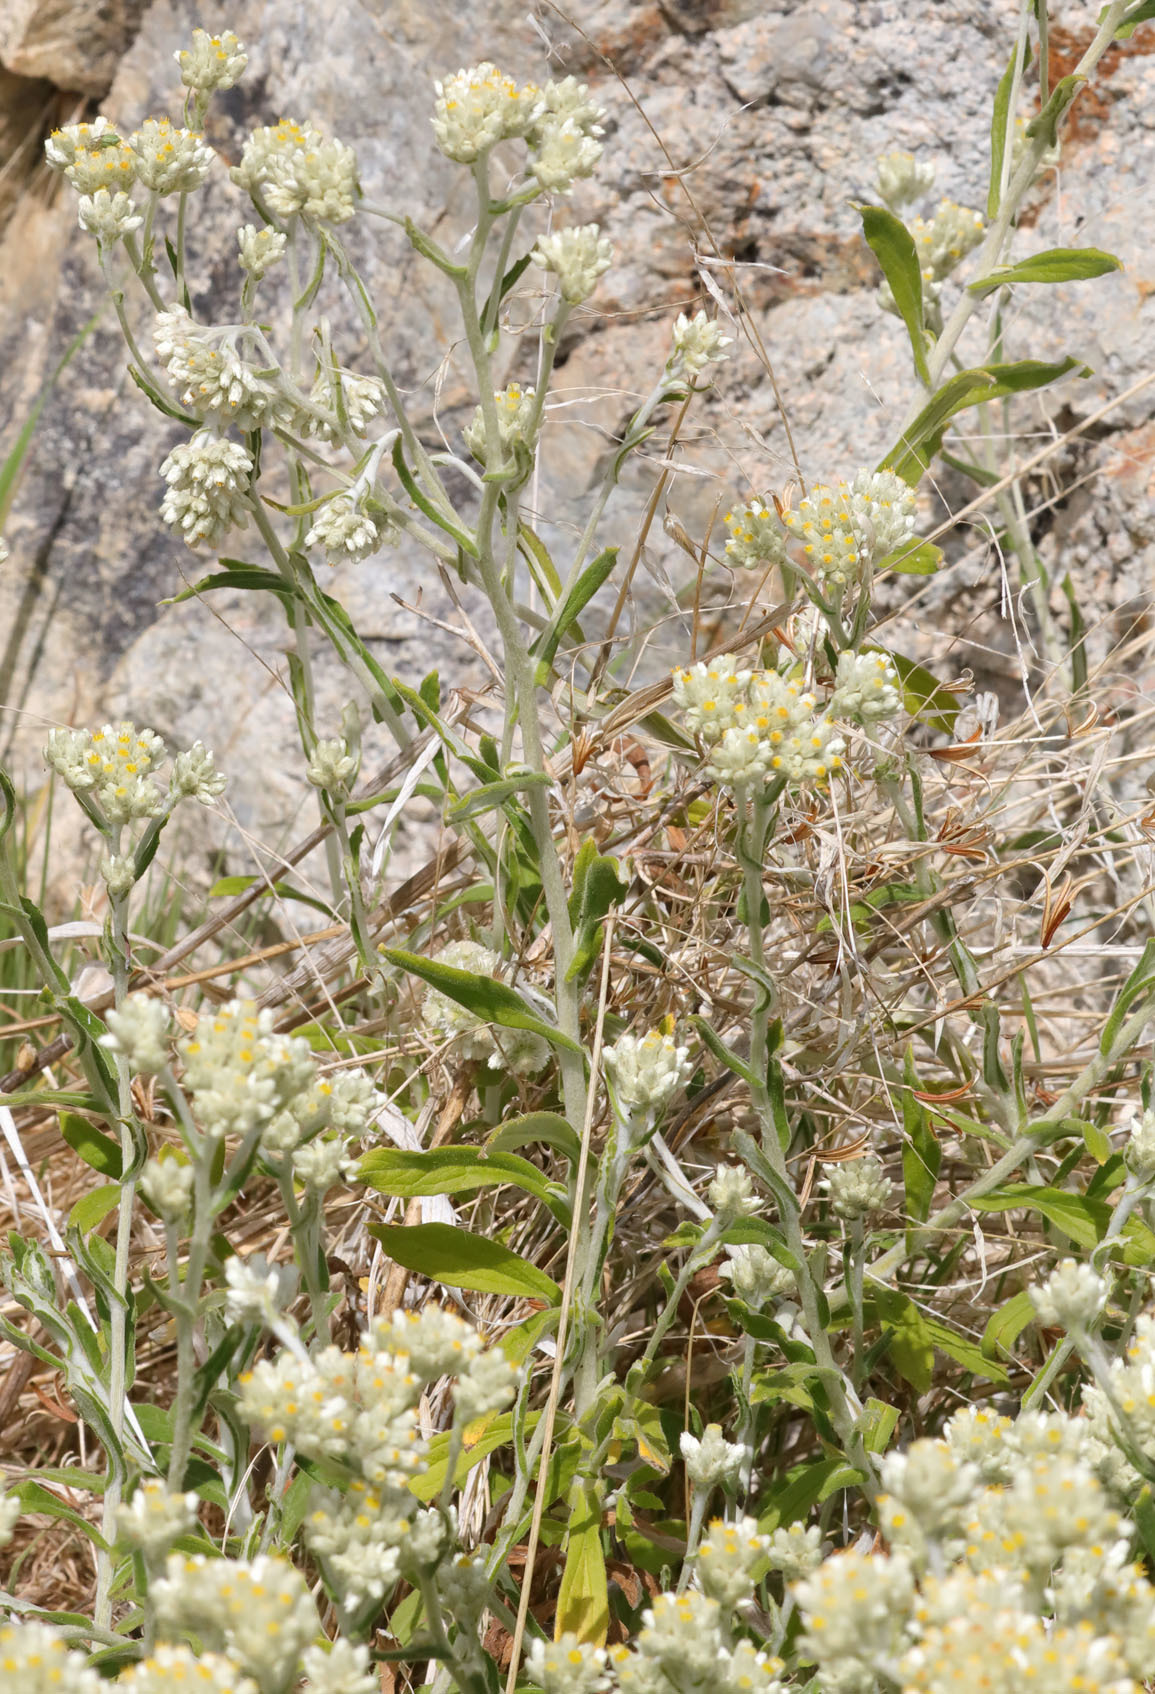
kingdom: Plantae
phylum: Tracheophyta
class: Magnoliopsida
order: Asterales
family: Asteraceae
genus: Pseudognaphalium
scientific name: Pseudognaphalium biolettii
